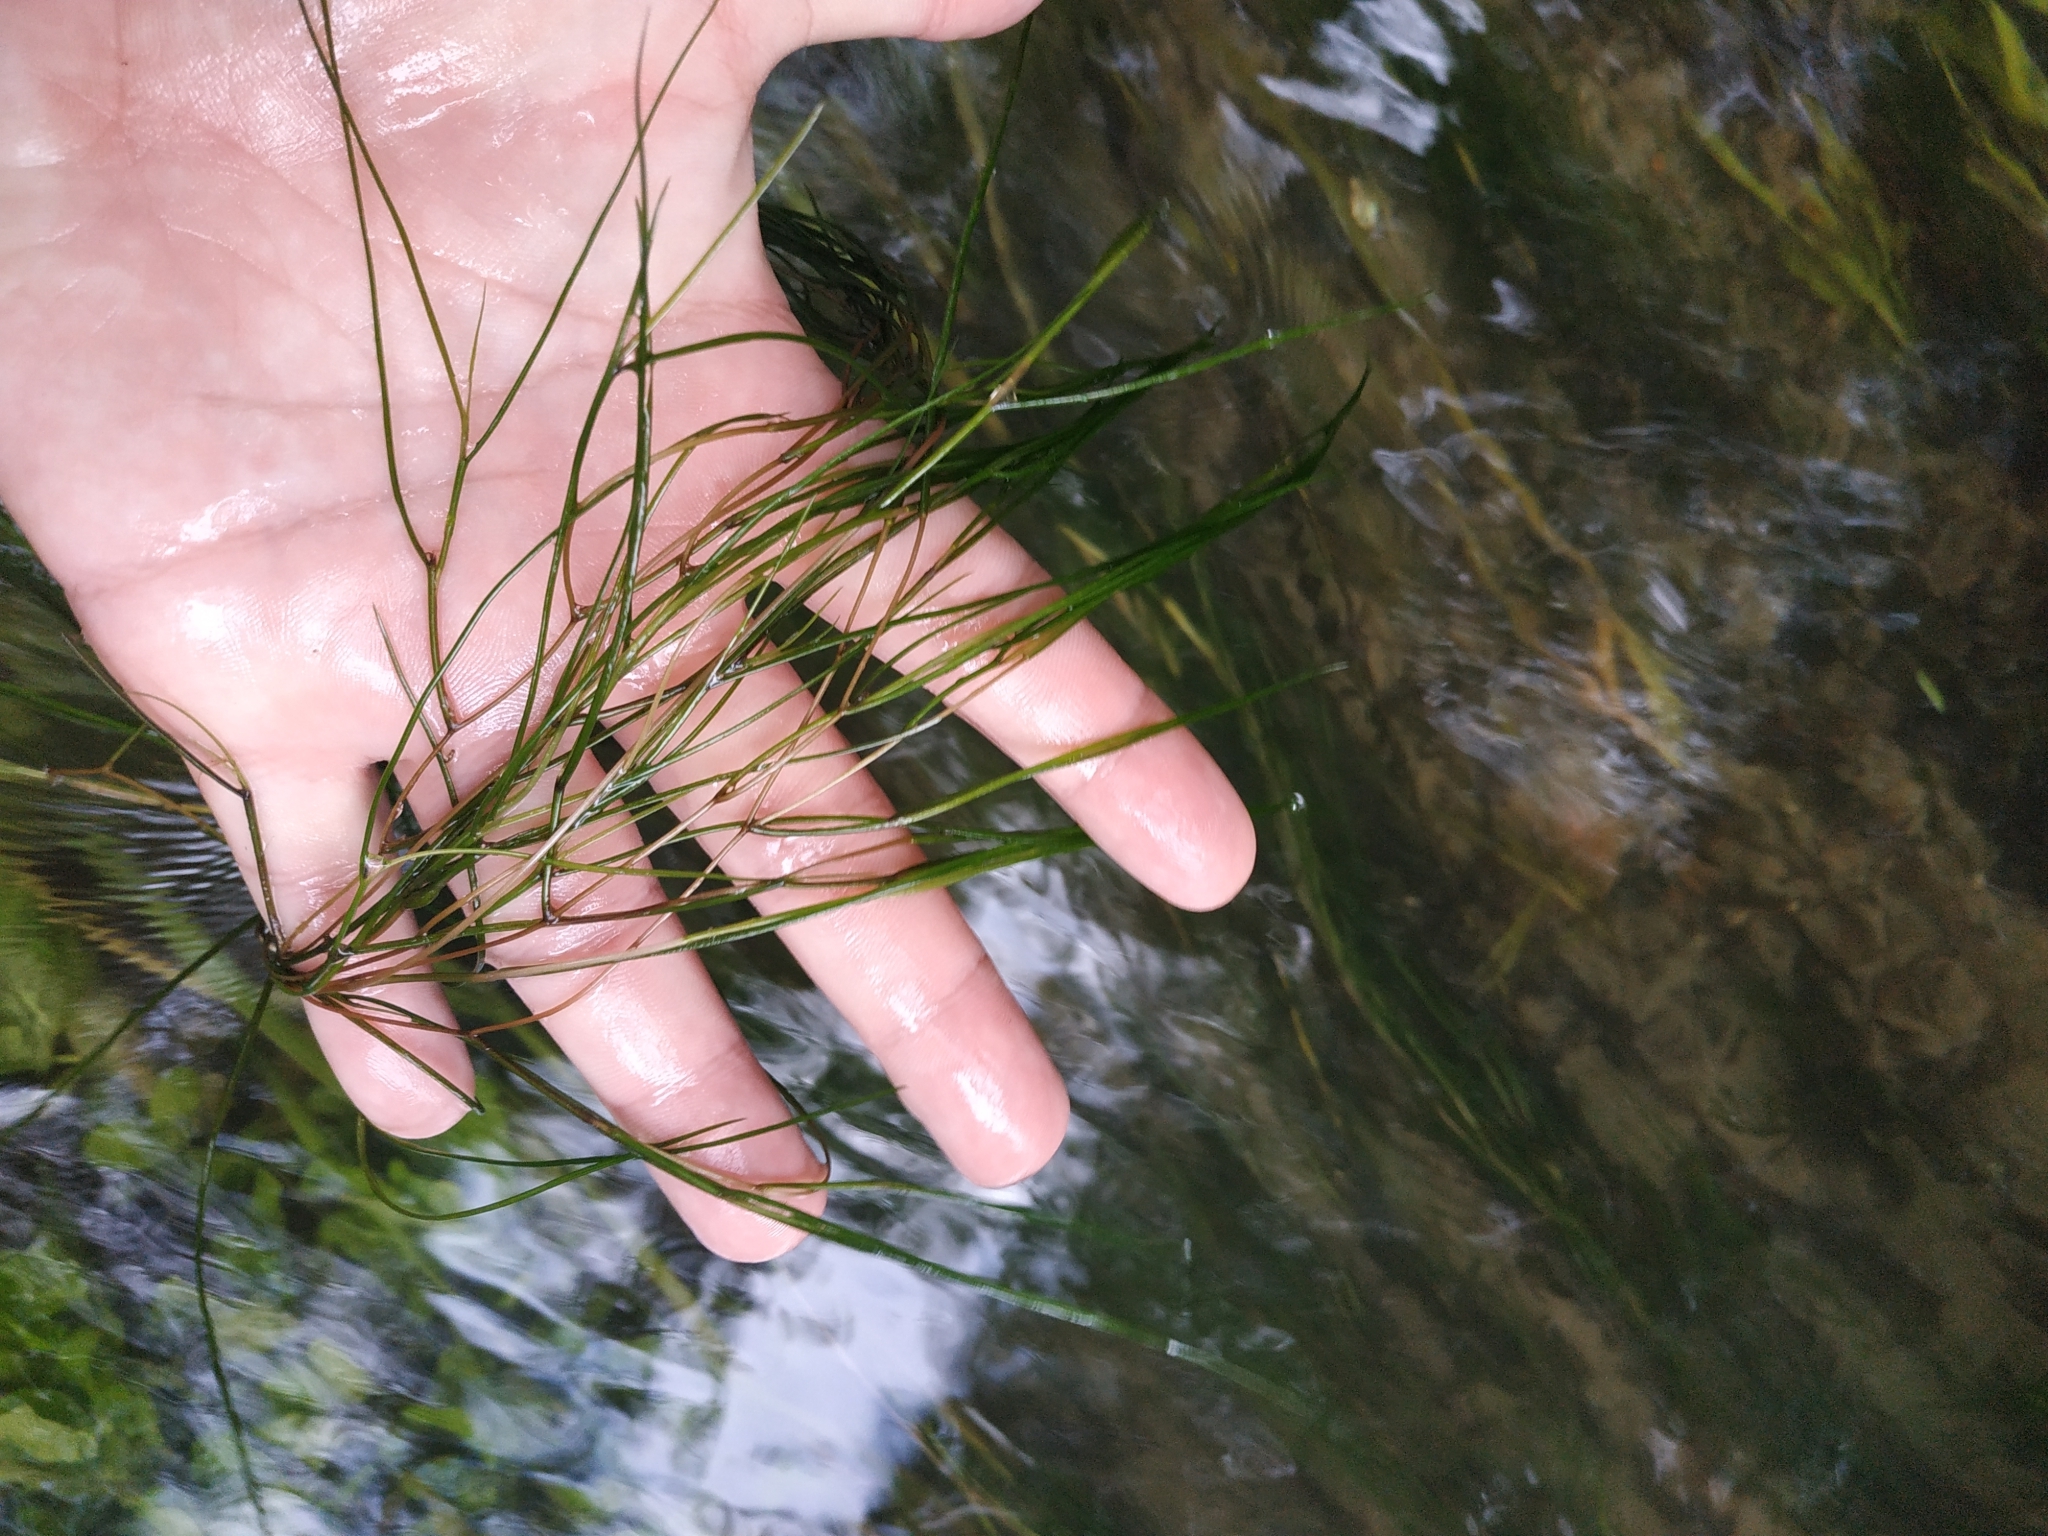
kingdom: Plantae
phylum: Tracheophyta
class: Liliopsida
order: Alismatales
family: Potamogetonaceae
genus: Stuckenia
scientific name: Stuckenia pectinata
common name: Sago pondweed
